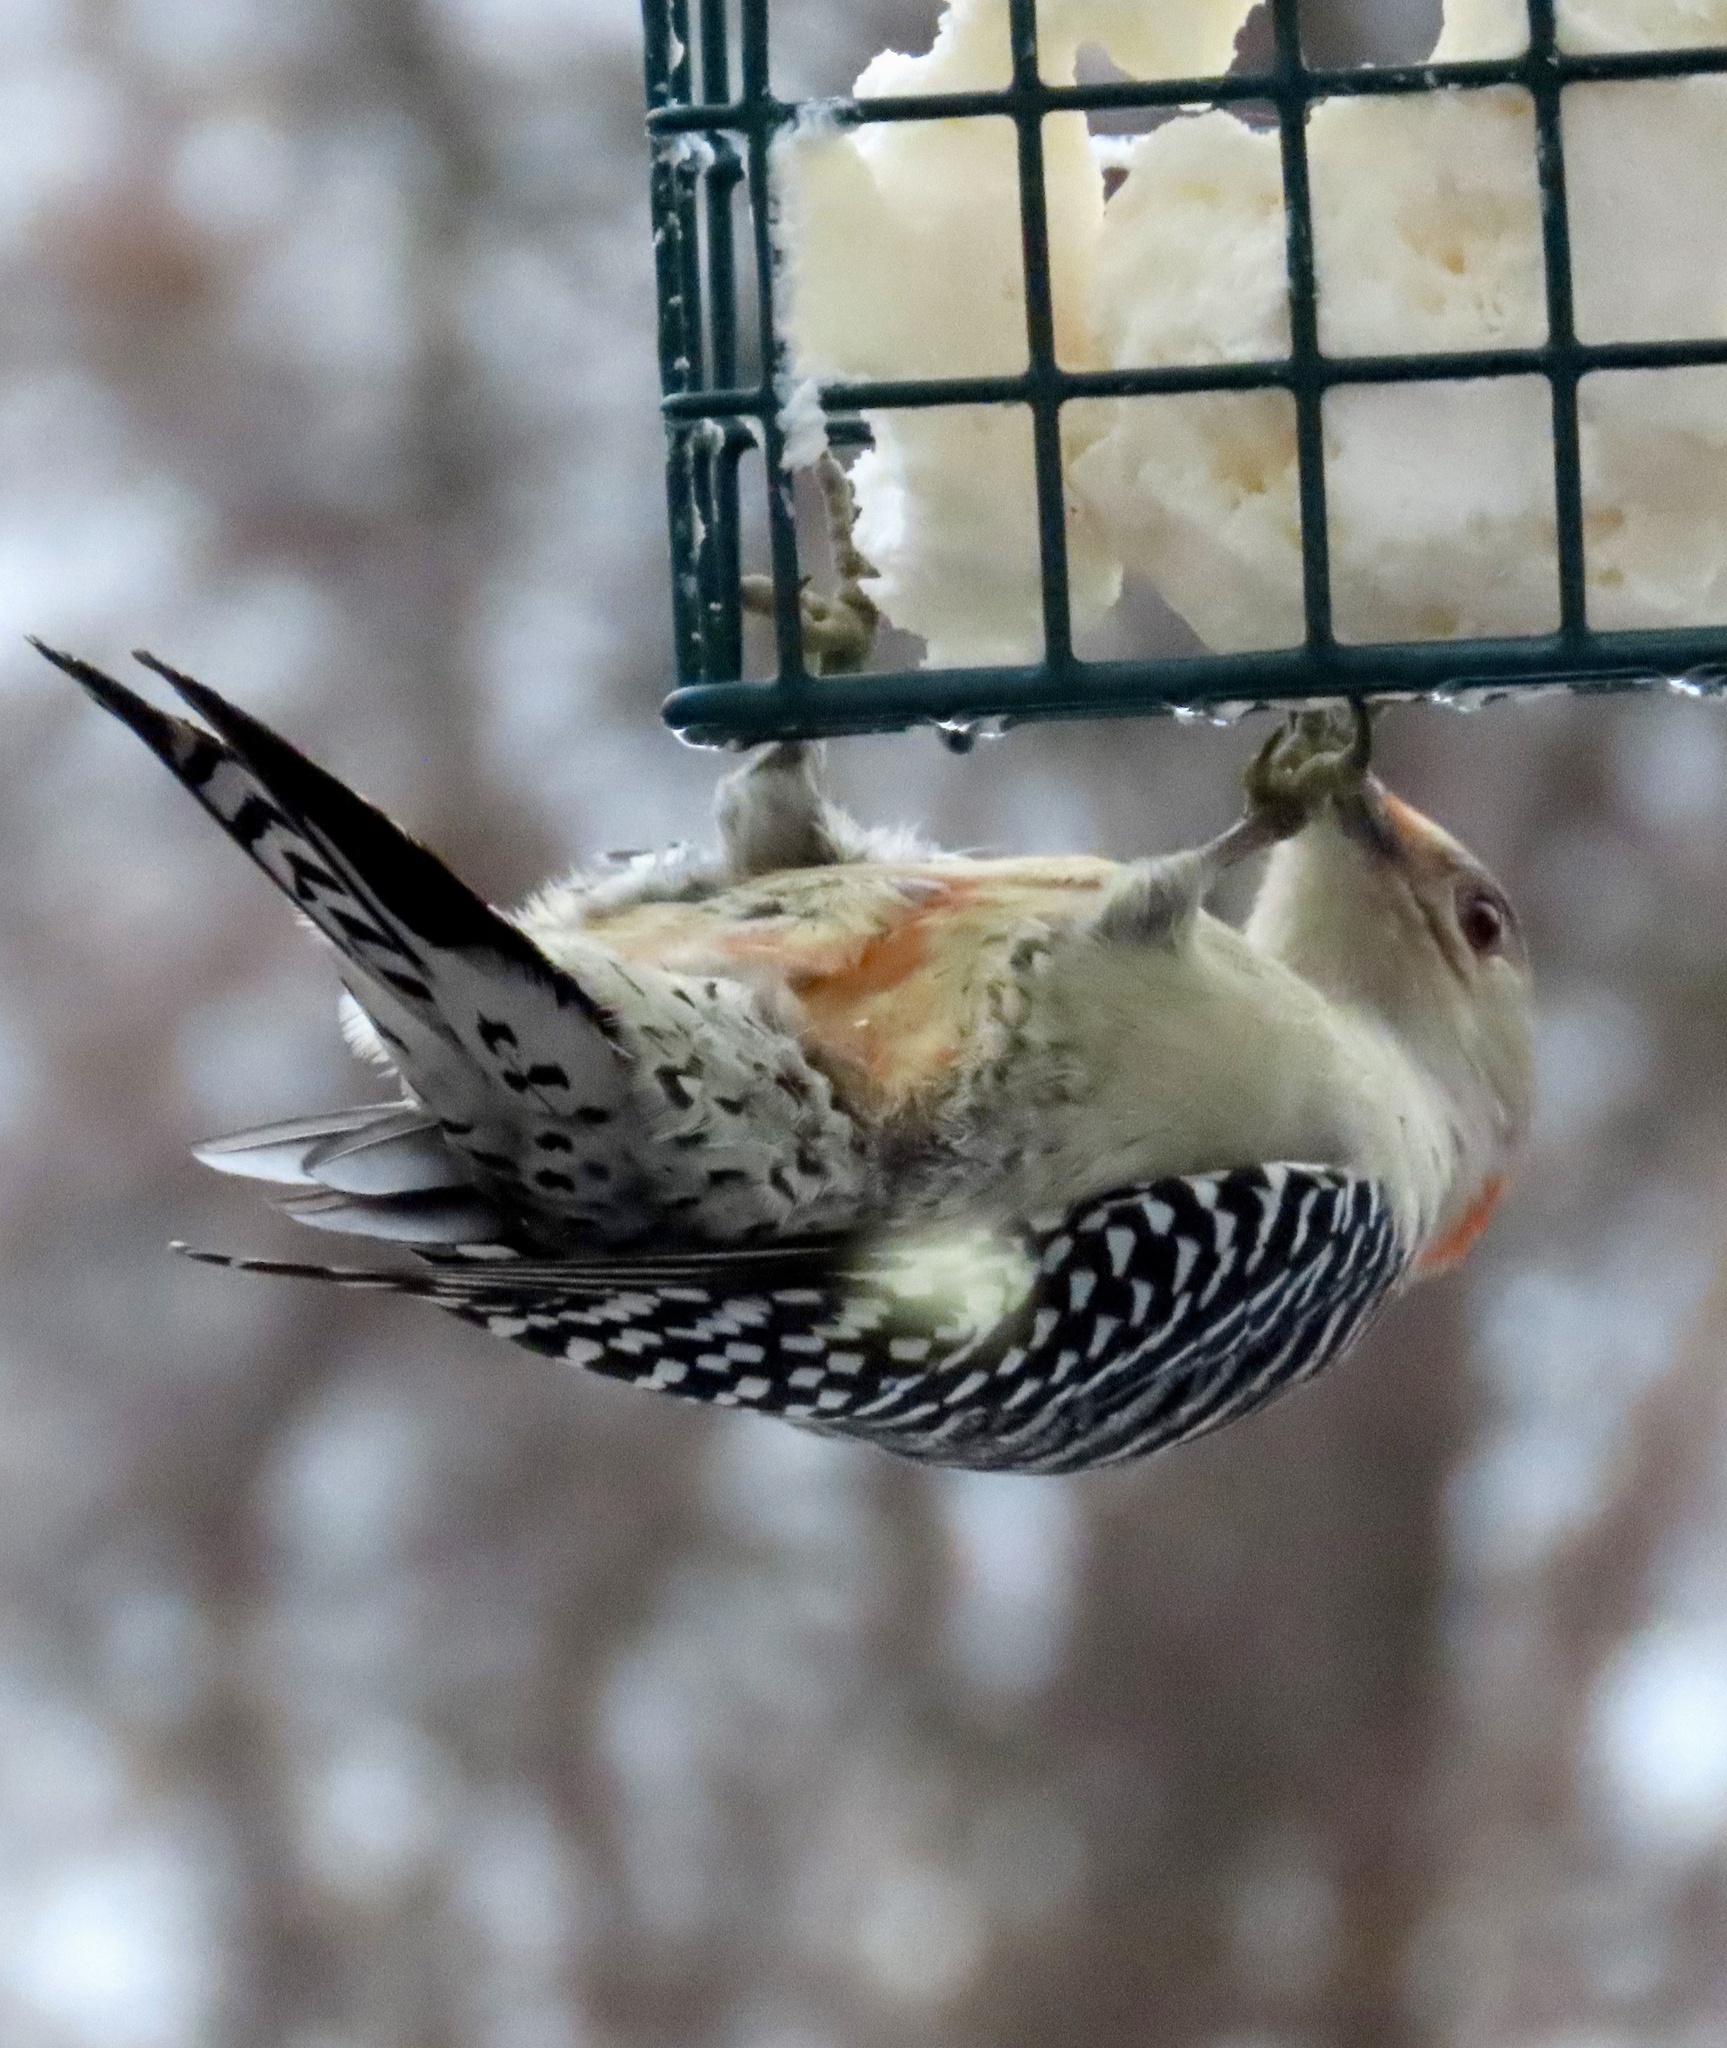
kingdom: Animalia
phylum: Chordata
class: Aves
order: Piciformes
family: Picidae
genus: Melanerpes
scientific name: Melanerpes carolinus
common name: Red-bellied woodpecker
